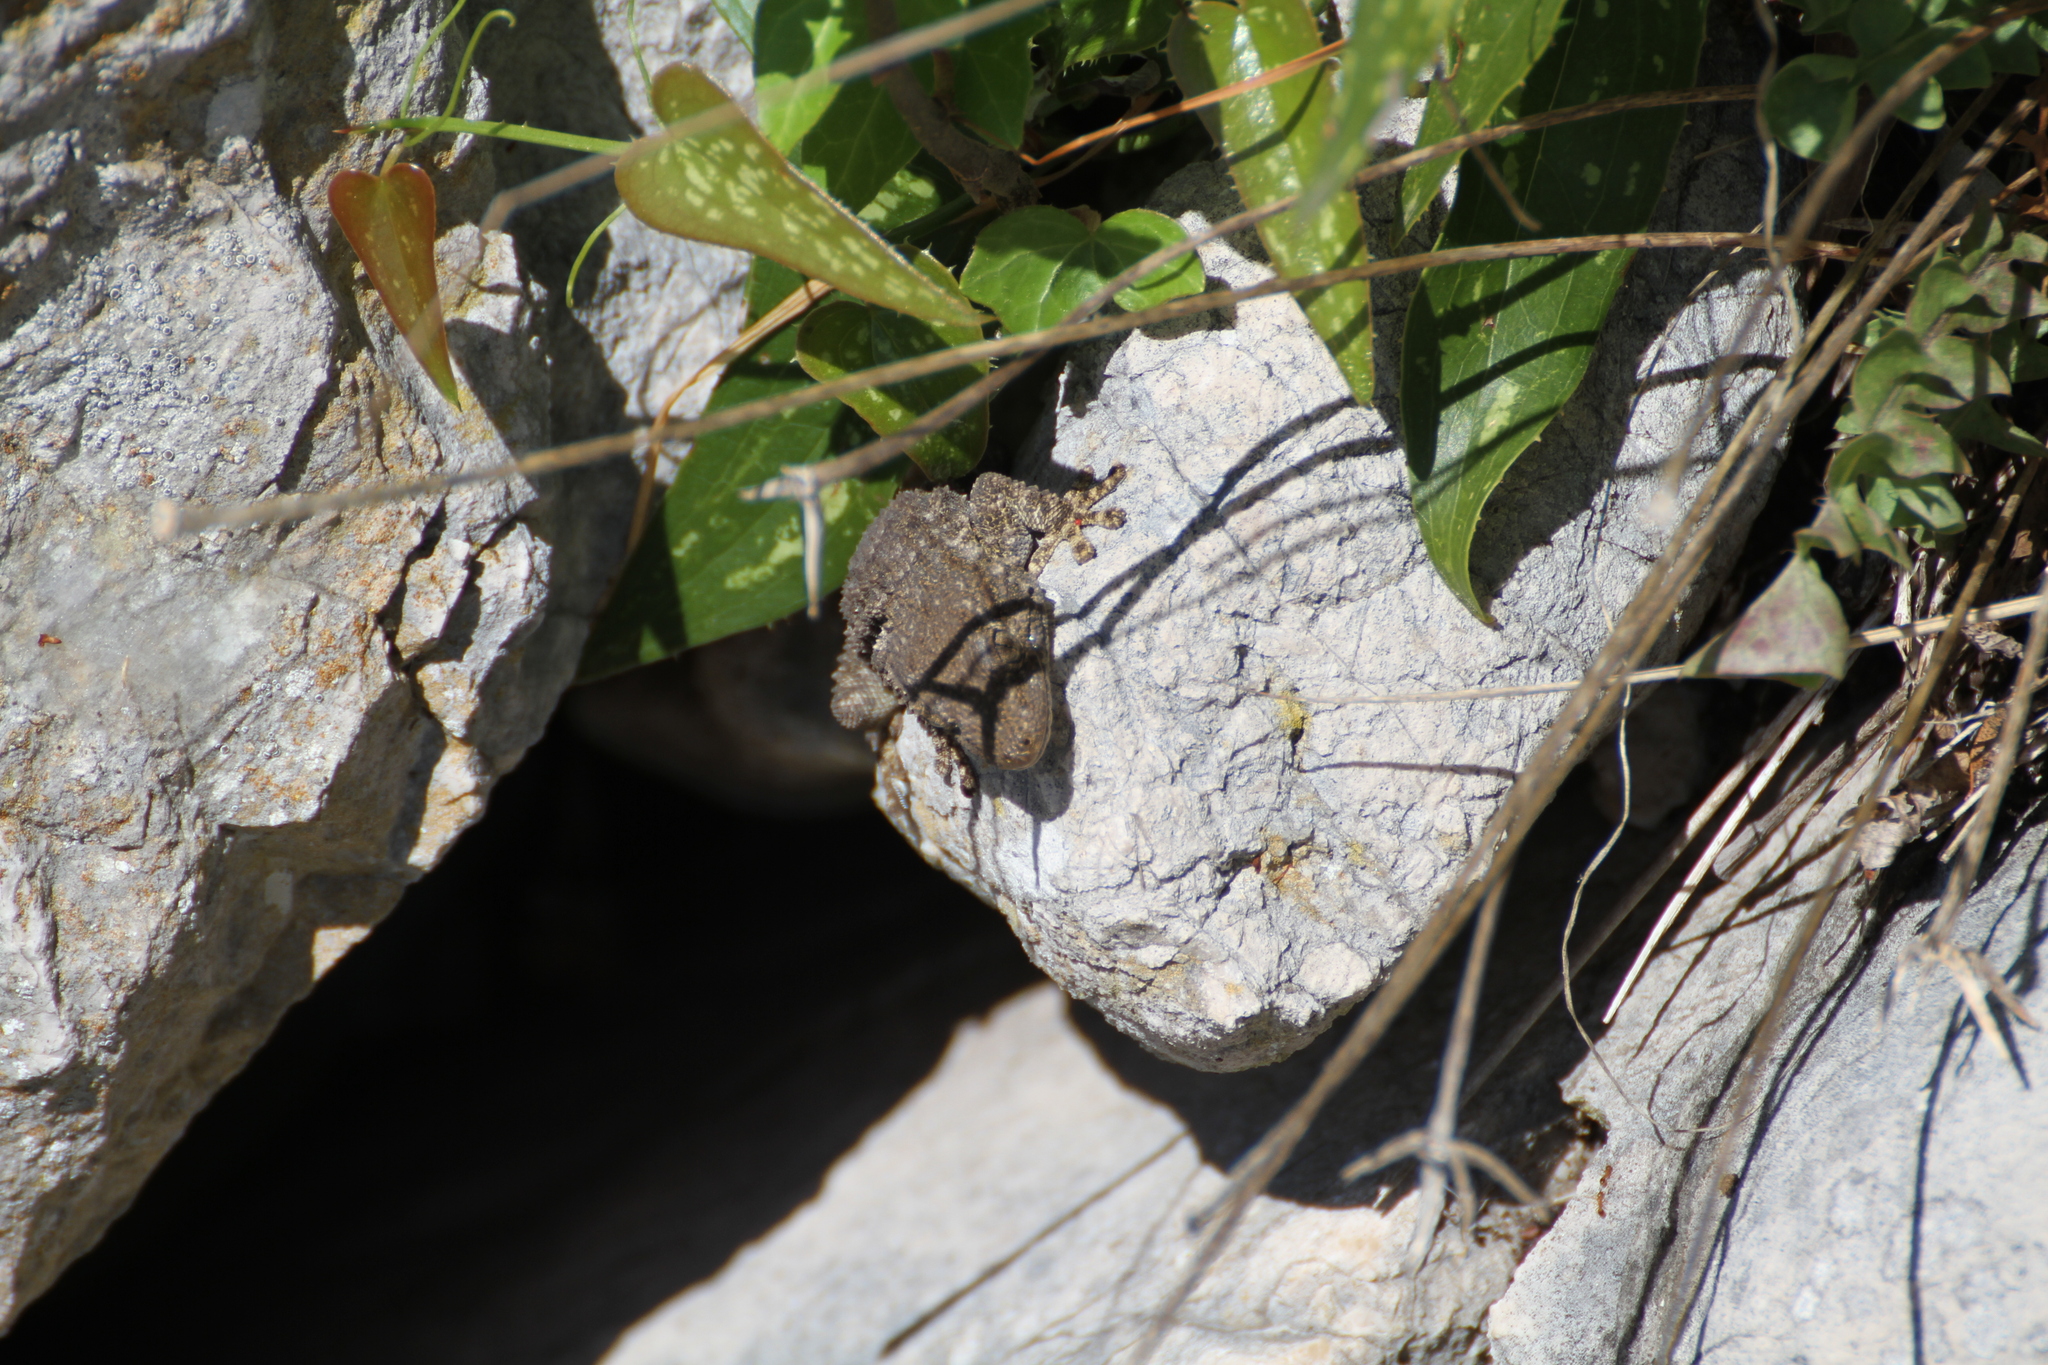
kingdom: Animalia
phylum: Chordata
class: Squamata
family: Phyllodactylidae
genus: Tarentola
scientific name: Tarentola mauritanica
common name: Moorish gecko
